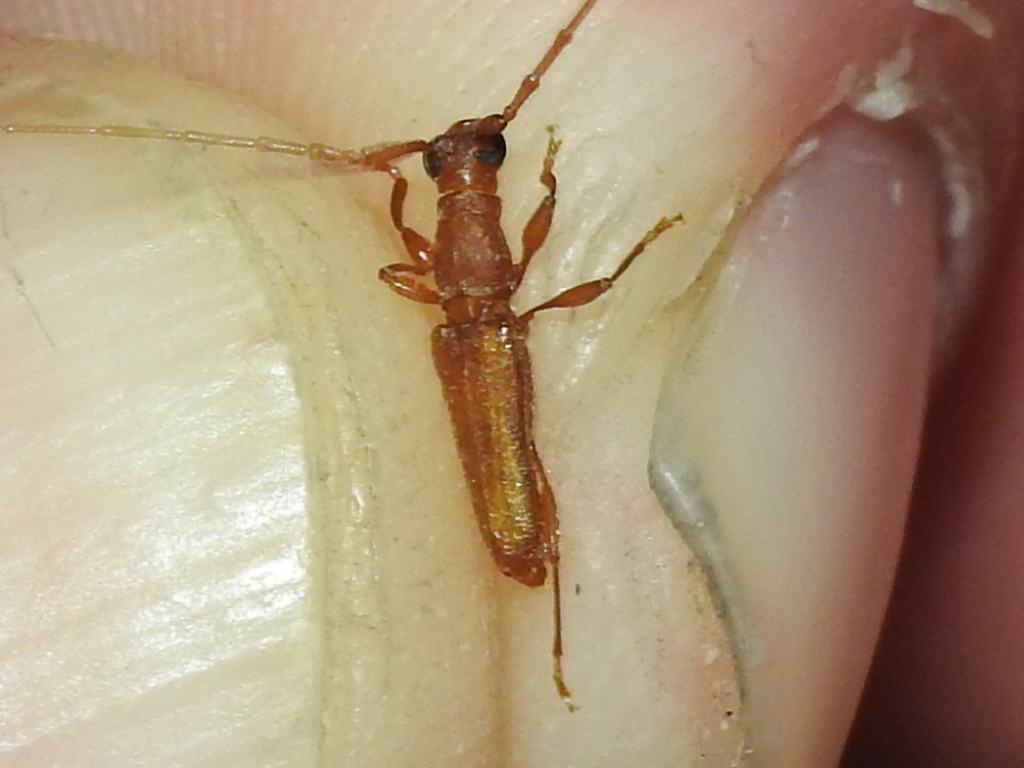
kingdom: Animalia
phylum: Arthropoda
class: Insecta
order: Coleoptera
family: Cerambycidae
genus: Hypexilis
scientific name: Hypexilis pallida
